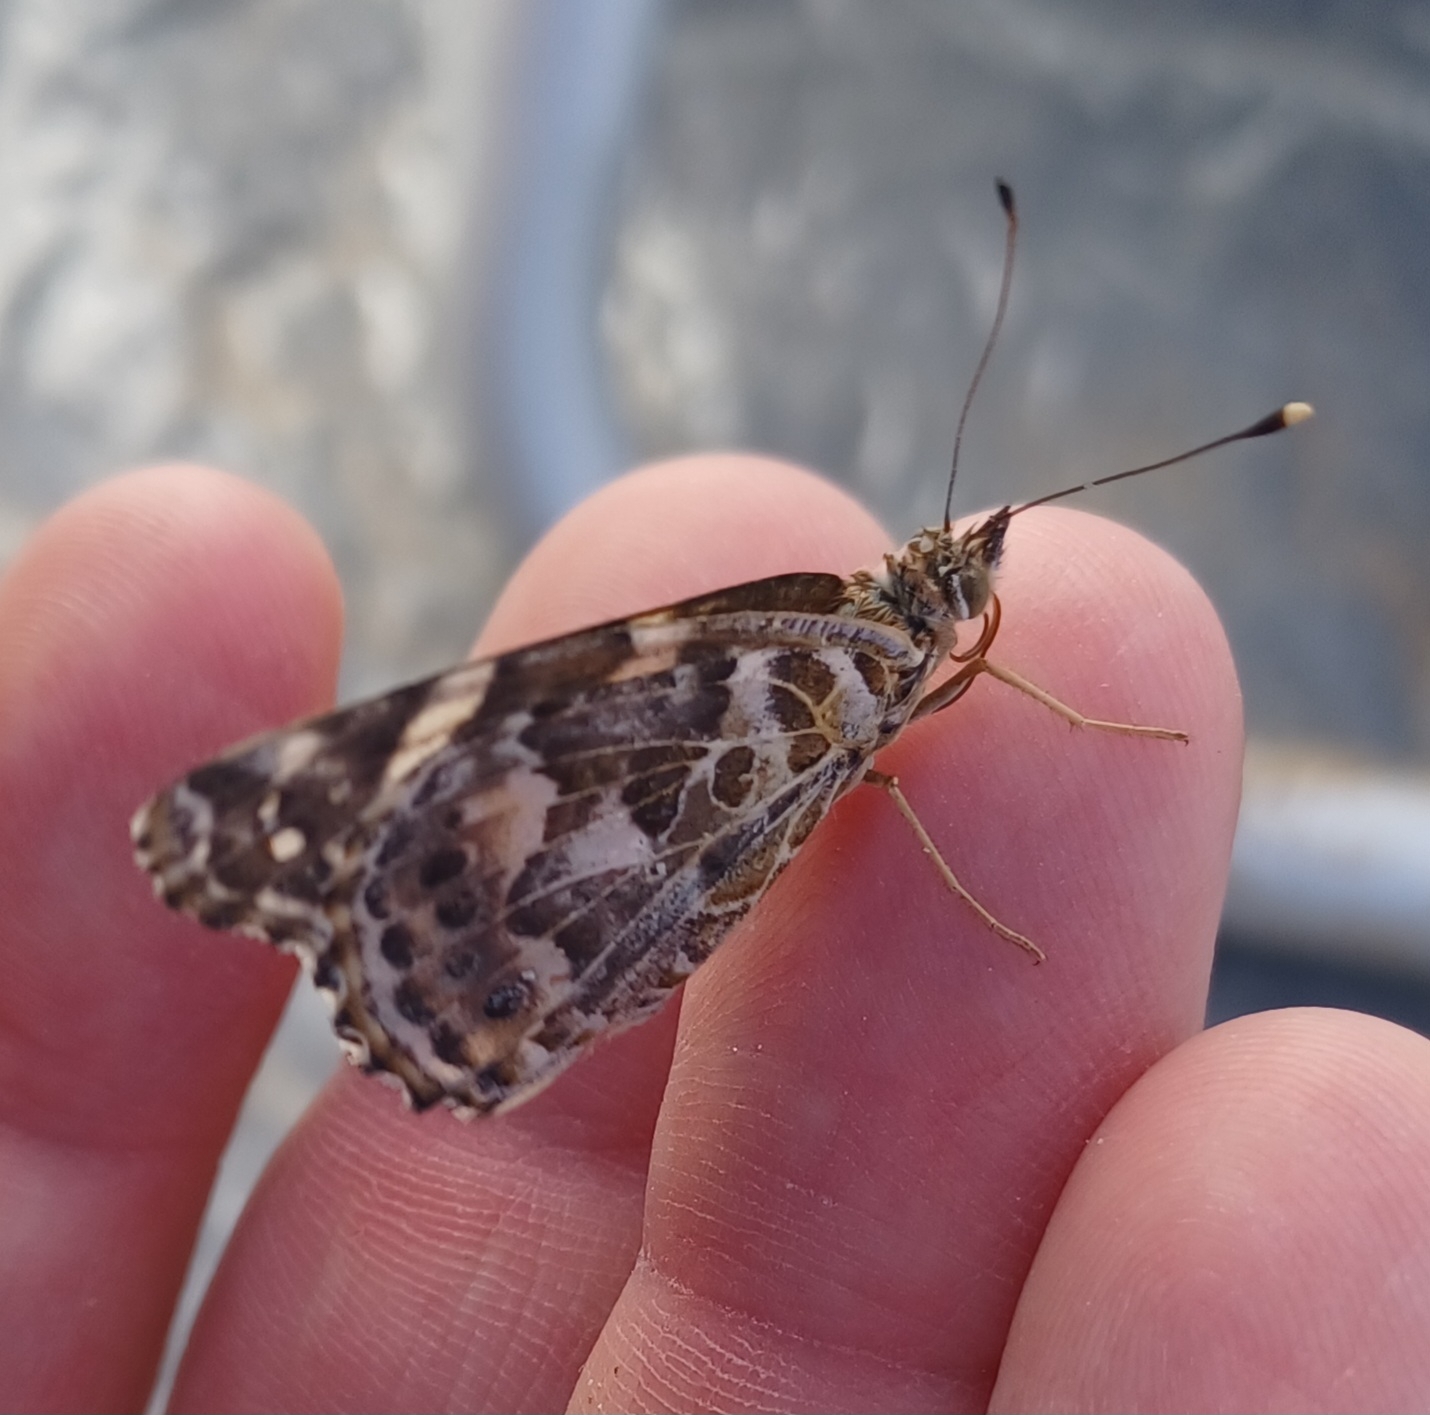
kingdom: Animalia
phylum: Arthropoda
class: Insecta
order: Lepidoptera
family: Nymphalidae
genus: Vanessa
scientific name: Vanessa kershawi
